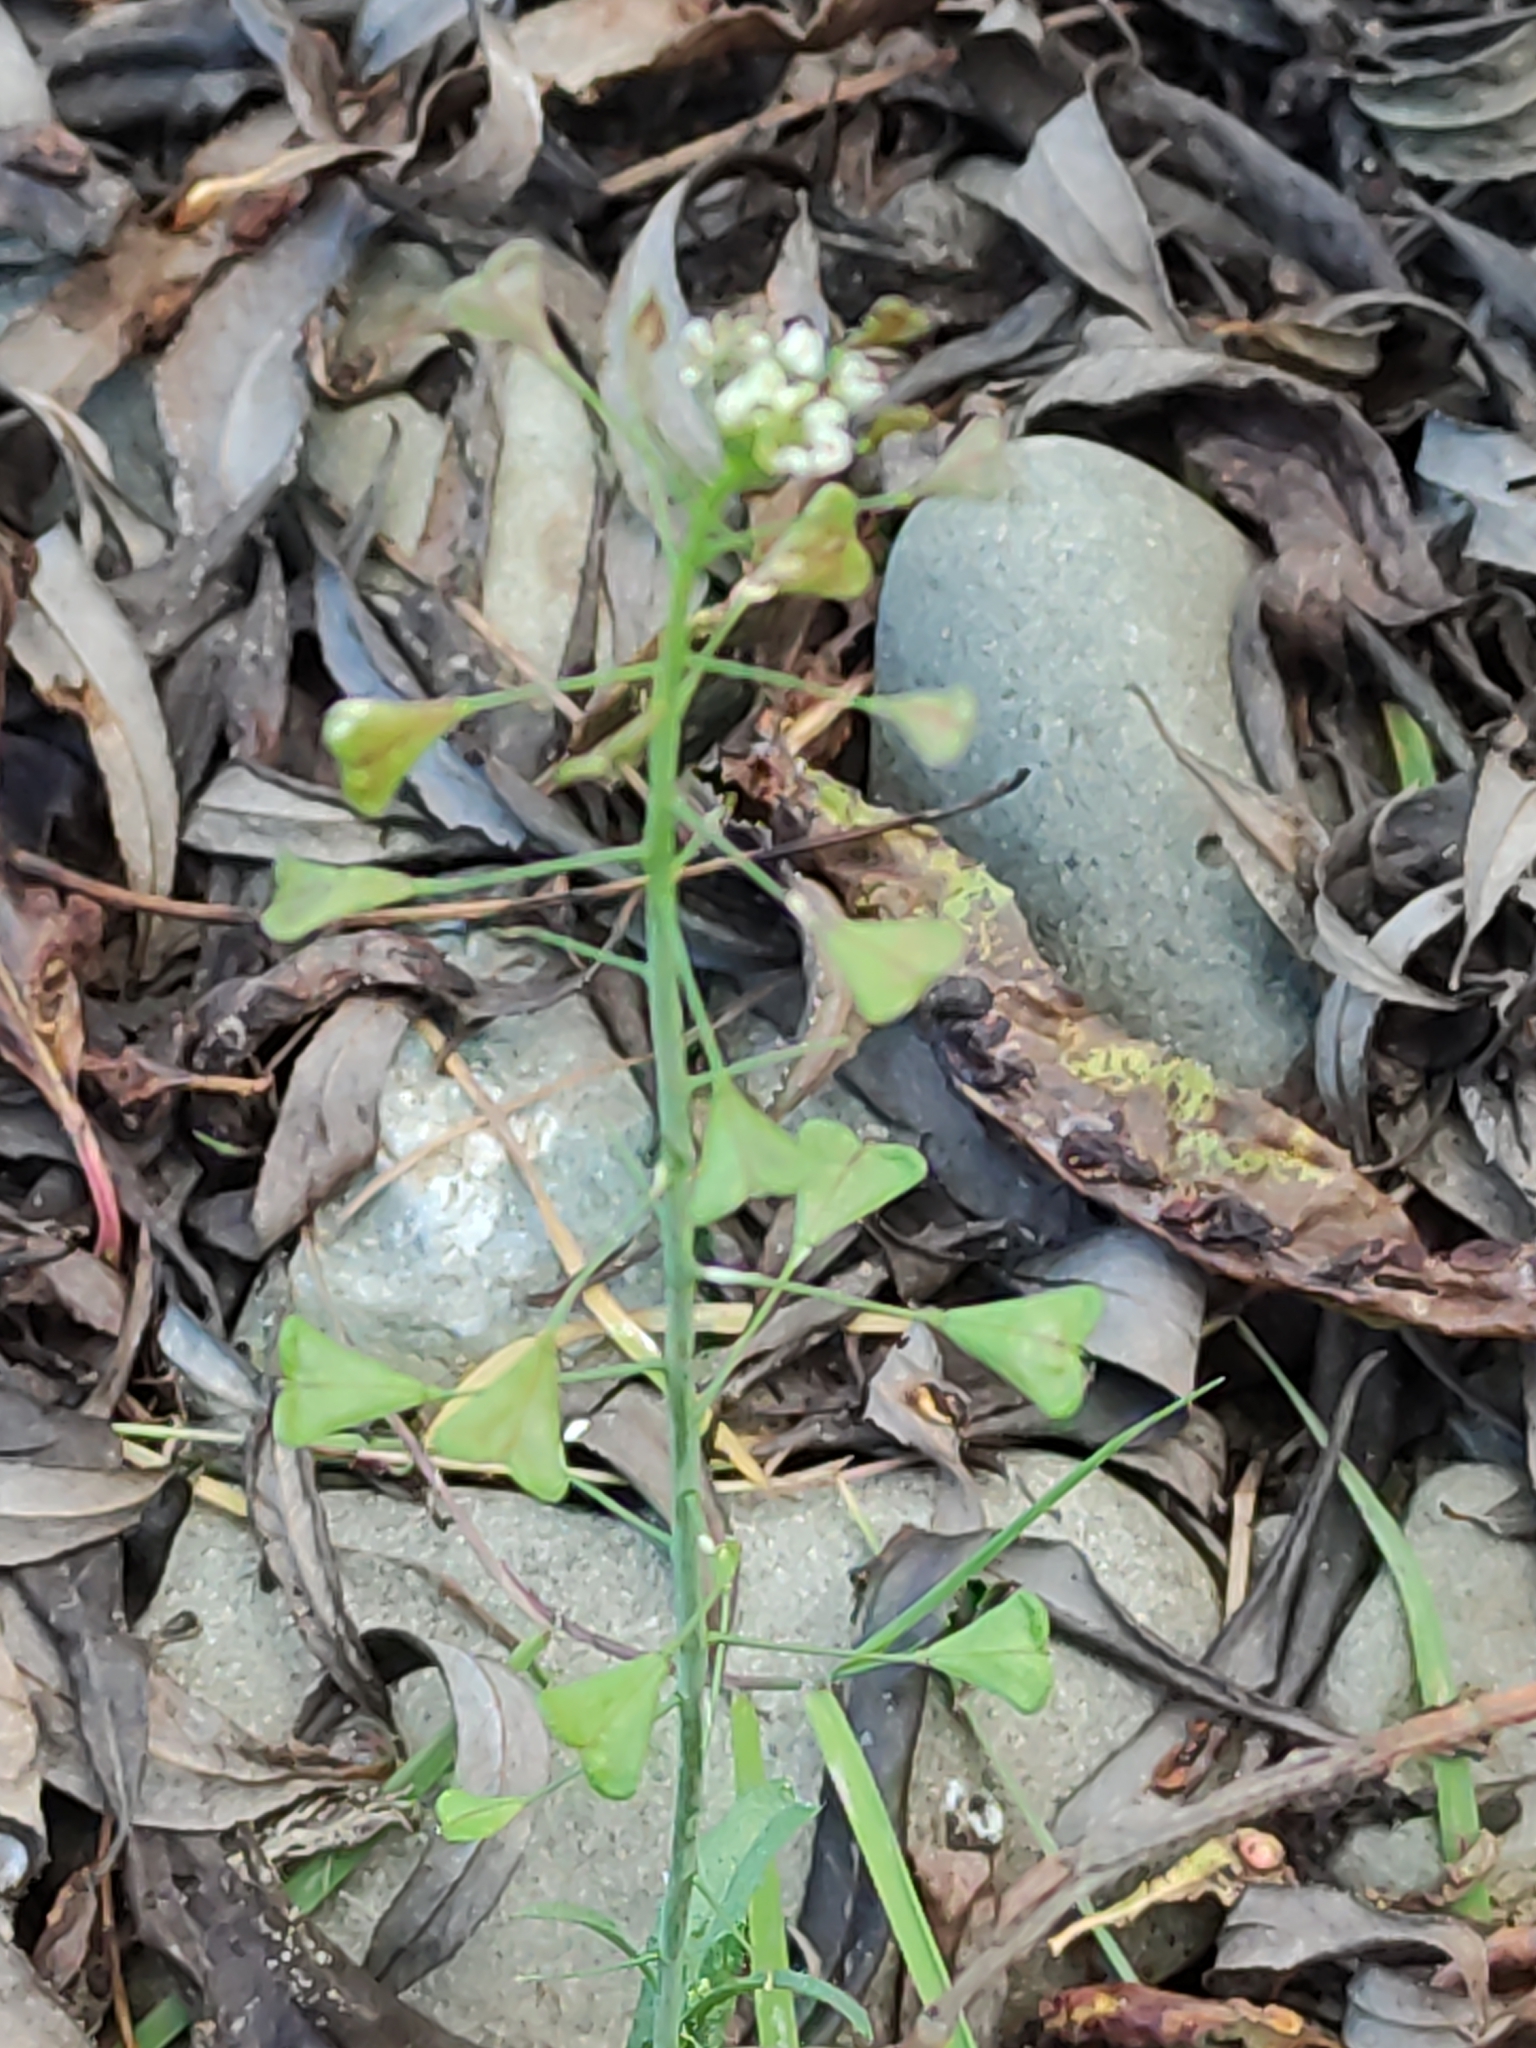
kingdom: Plantae
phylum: Tracheophyta
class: Magnoliopsida
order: Brassicales
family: Brassicaceae
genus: Capsella
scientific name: Capsella bursa-pastoris
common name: Shepherd's purse
